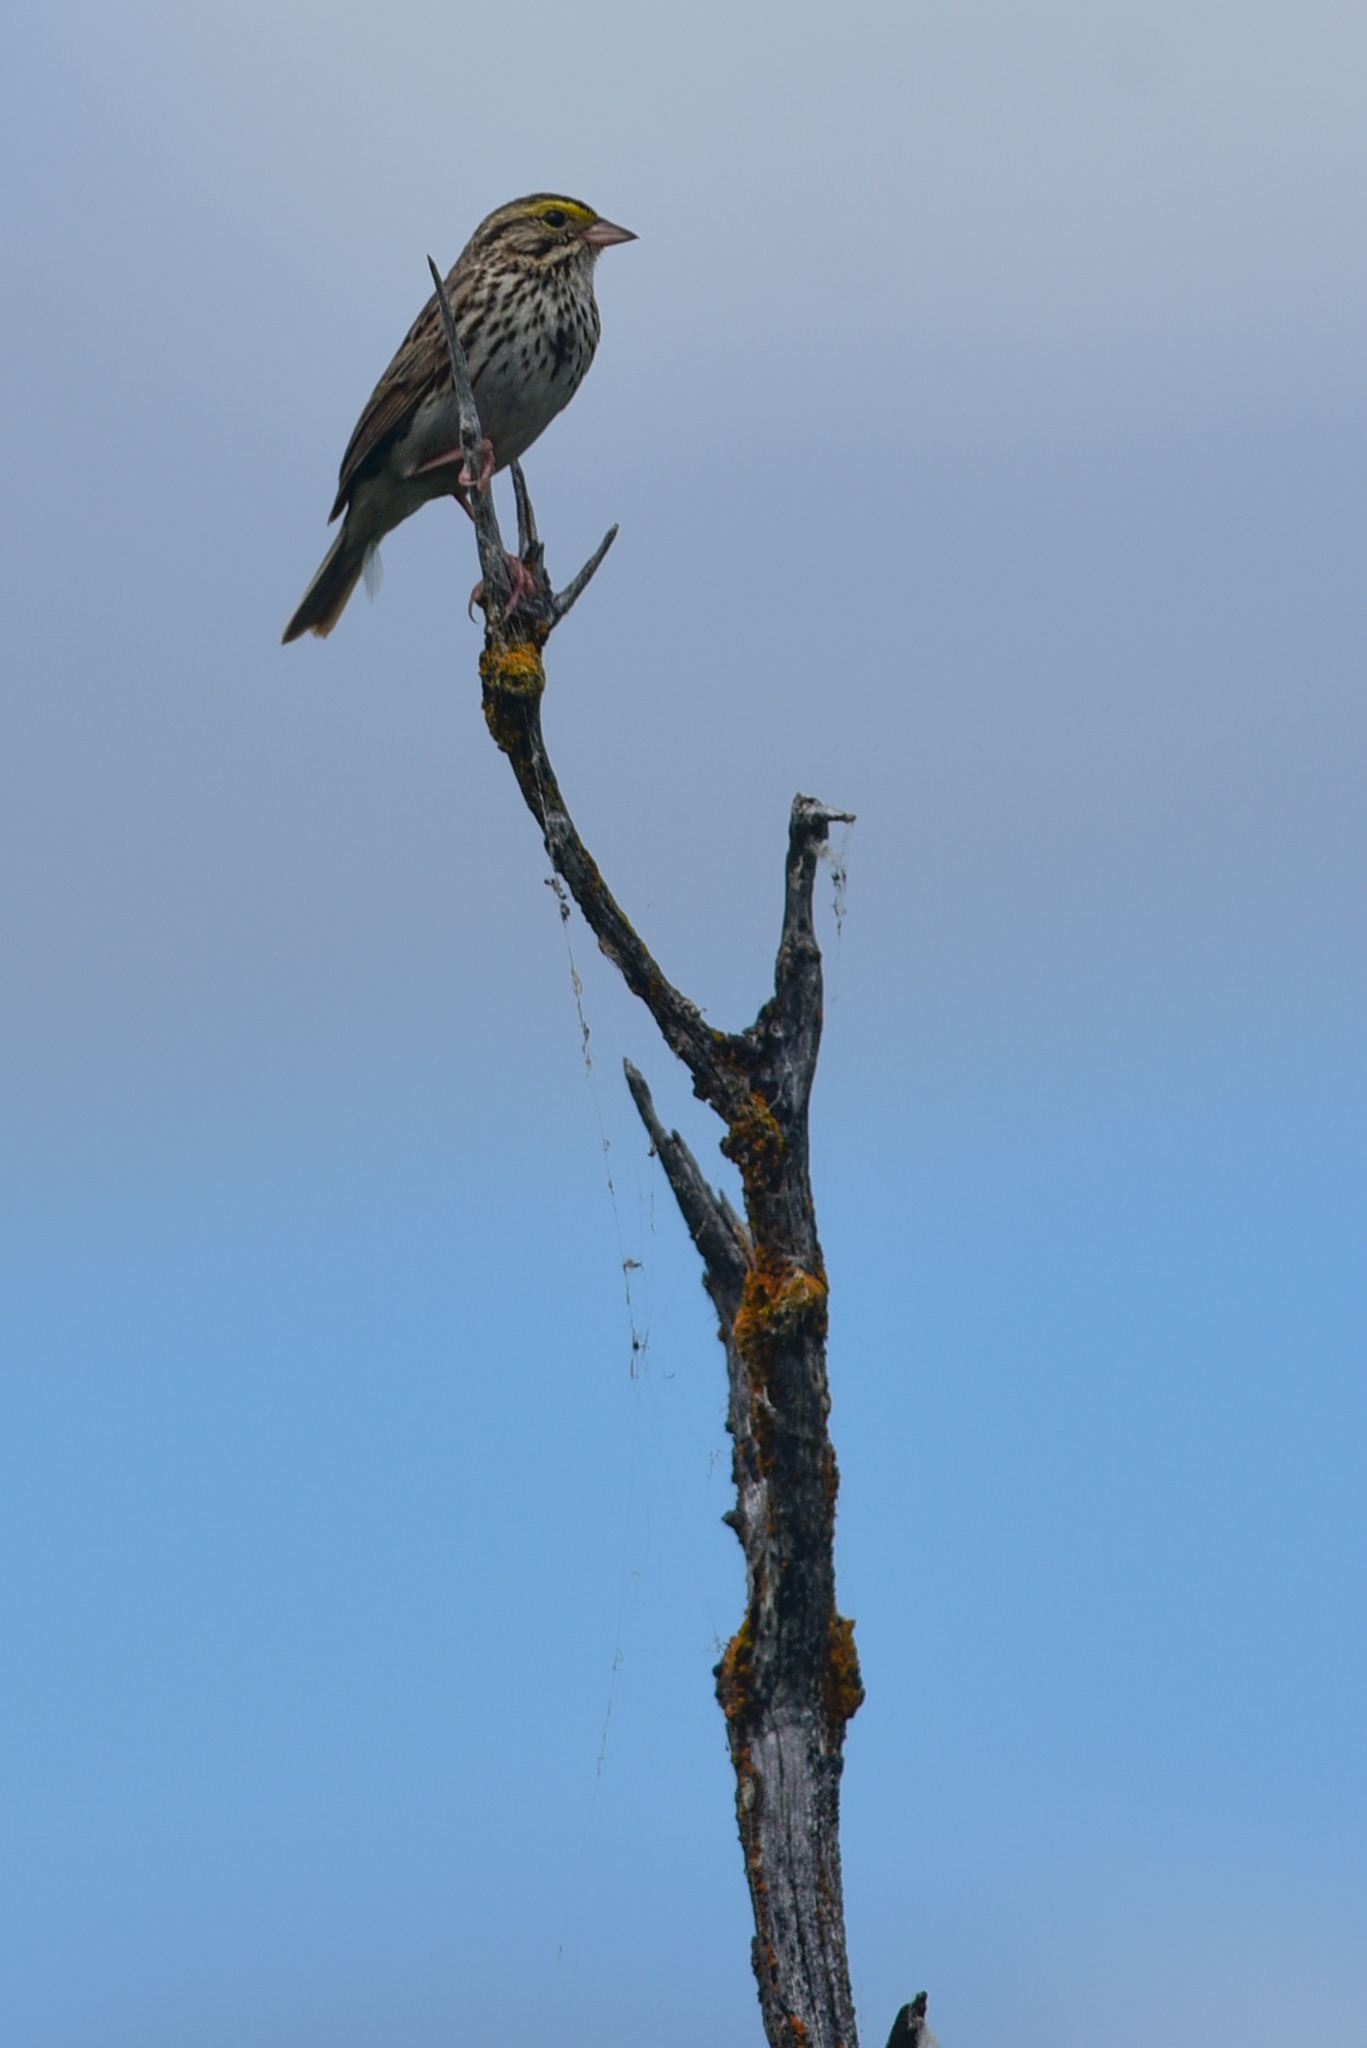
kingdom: Animalia
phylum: Chordata
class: Aves
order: Passeriformes
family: Passerellidae
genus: Passerculus
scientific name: Passerculus sandwichensis
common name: Savannah sparrow
